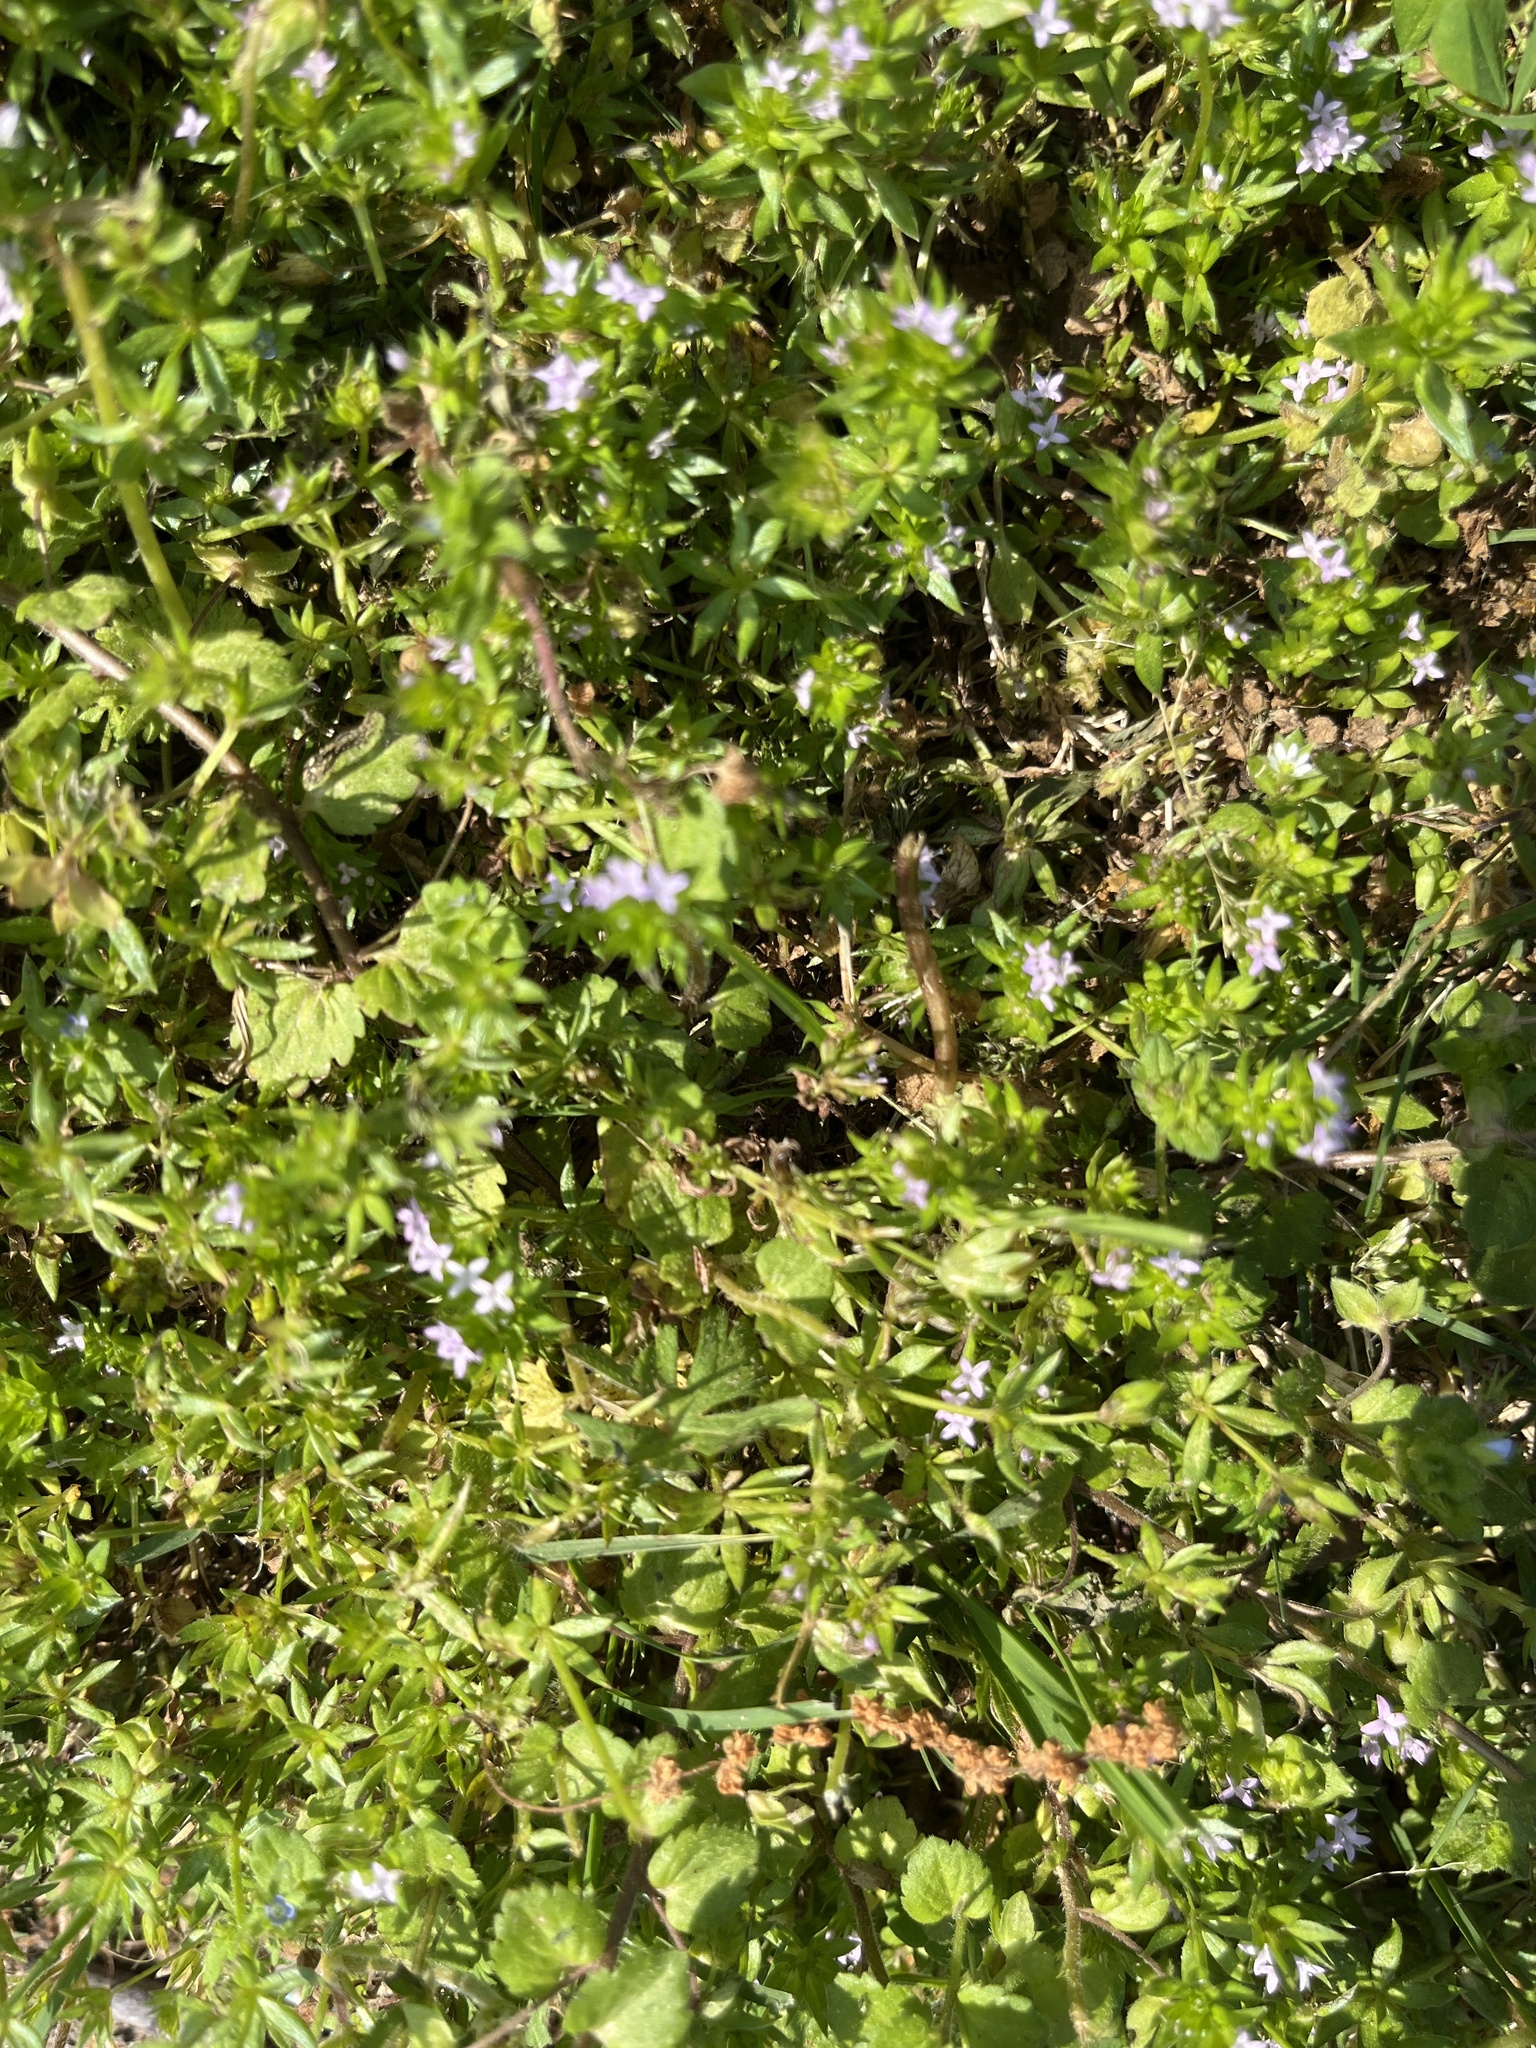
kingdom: Plantae
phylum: Tracheophyta
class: Magnoliopsida
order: Gentianales
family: Rubiaceae
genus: Sherardia
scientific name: Sherardia arvensis
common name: Field madder
